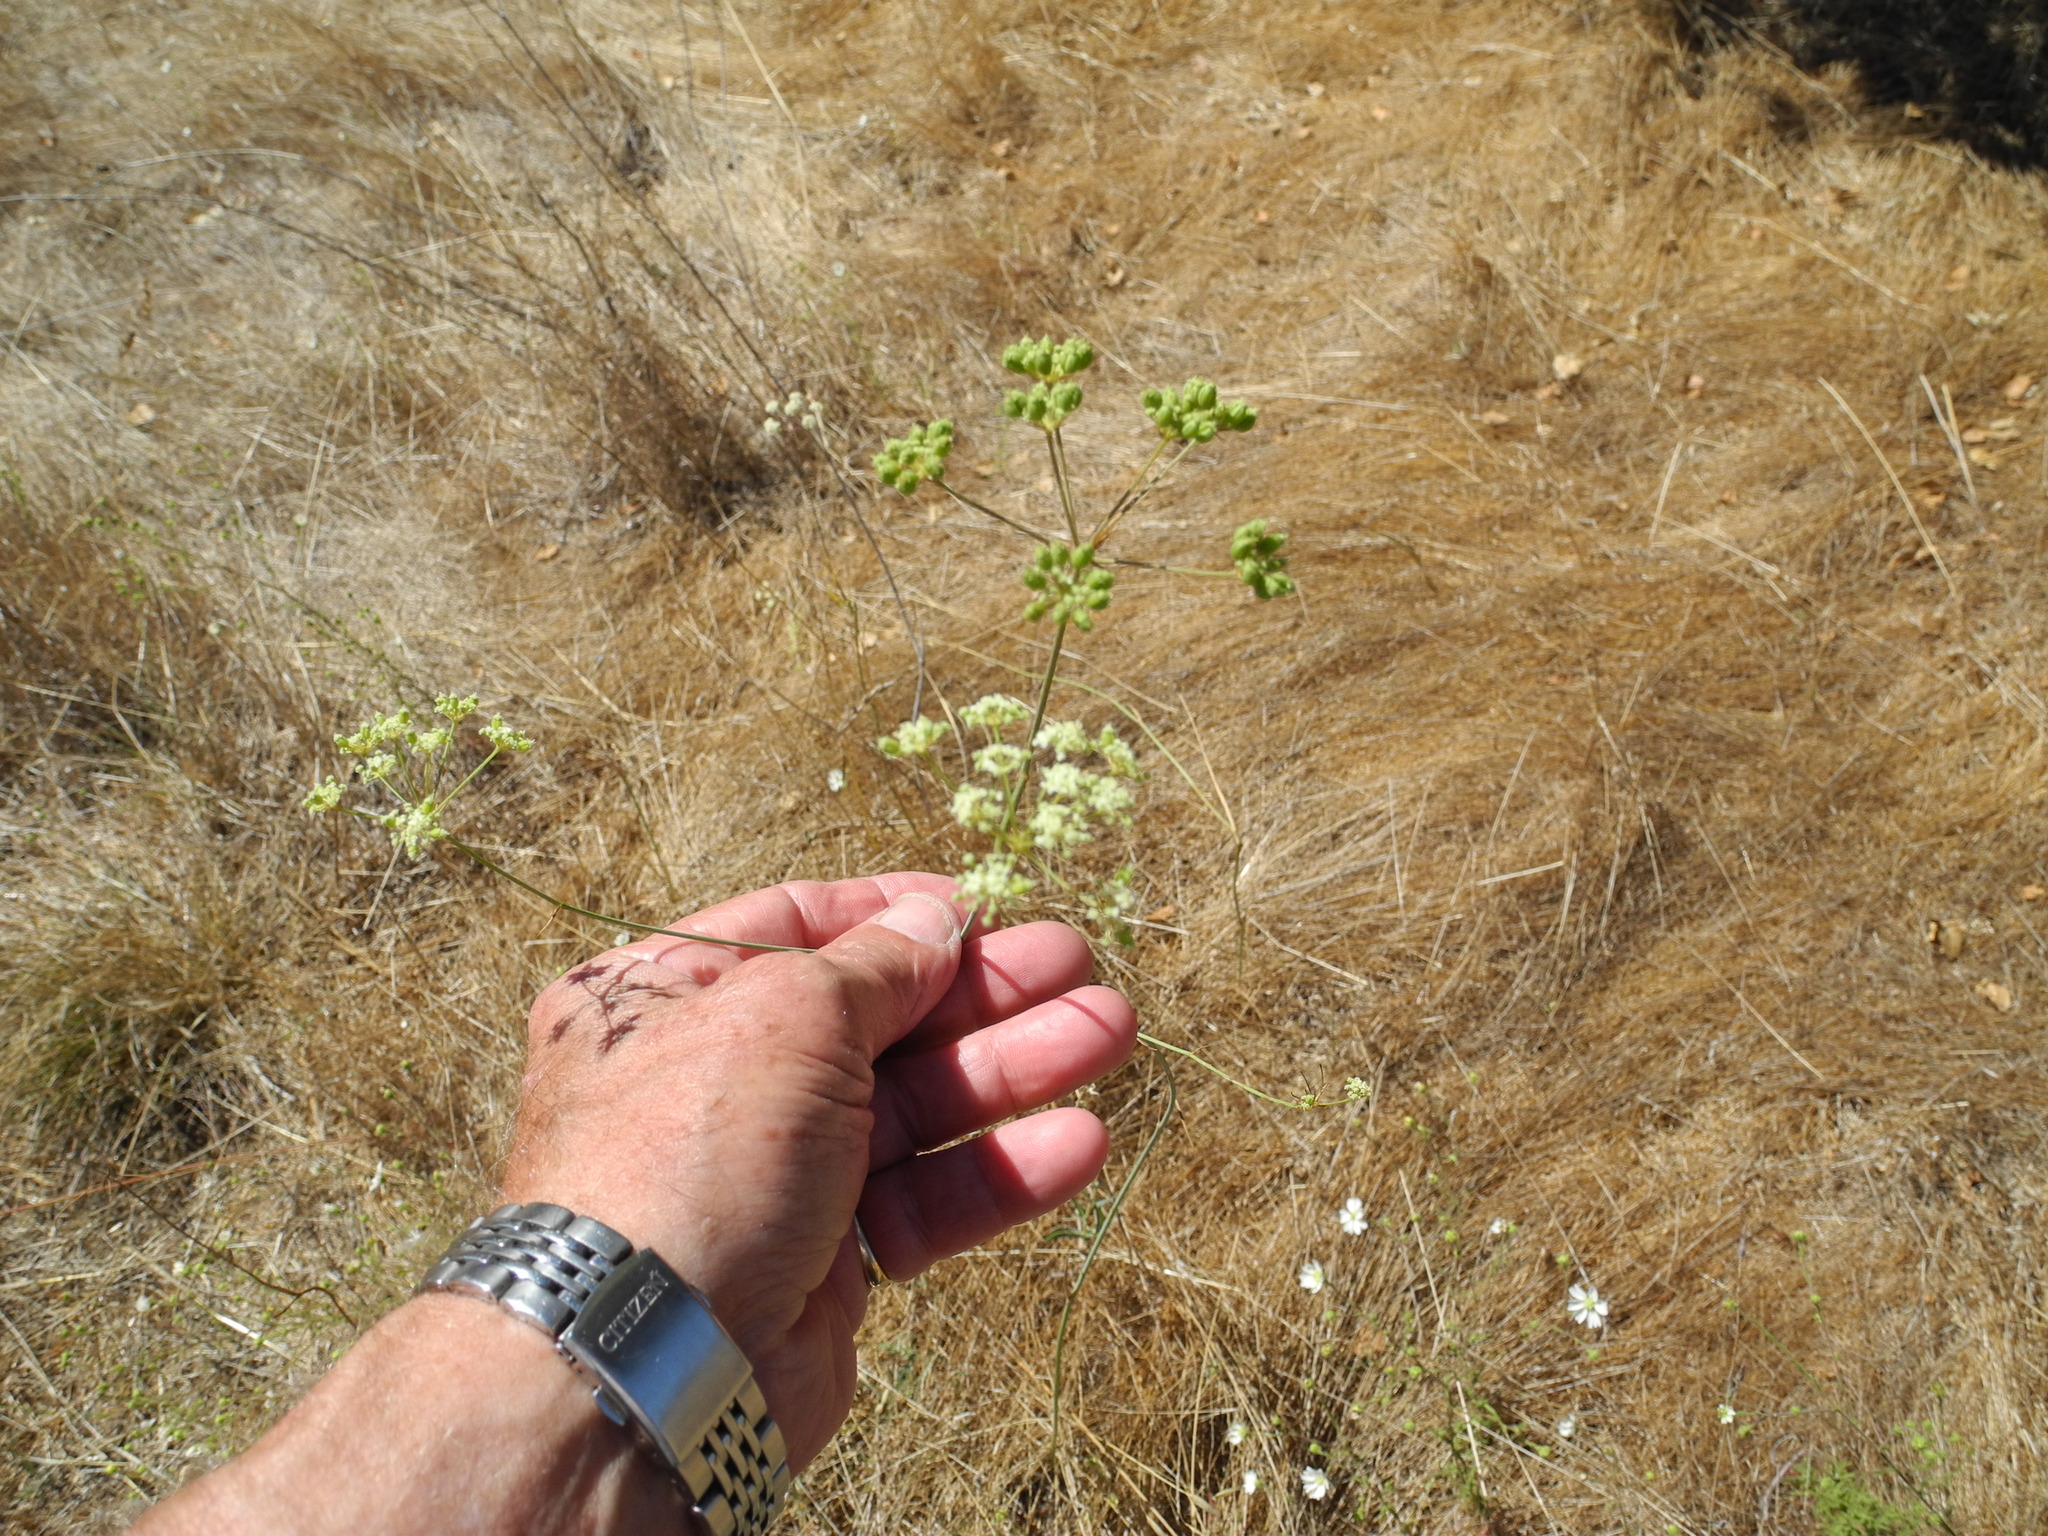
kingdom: Plantae
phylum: Tracheophyta
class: Magnoliopsida
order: Apiales
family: Apiaceae
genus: Perideridia
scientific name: Perideridia kelloggii
